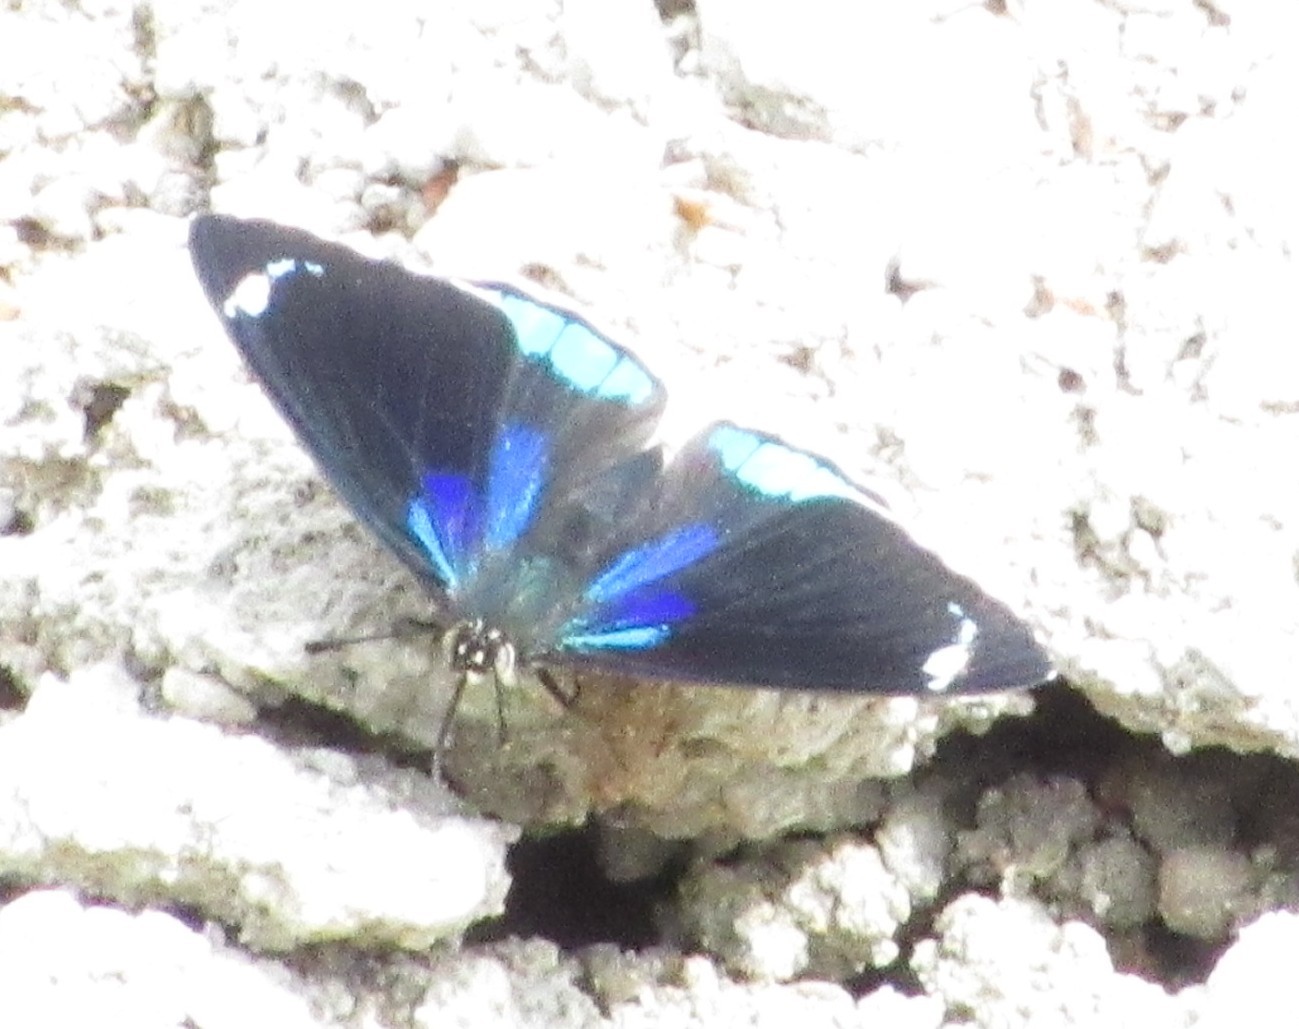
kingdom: Animalia
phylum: Arthropoda
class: Insecta
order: Lepidoptera
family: Nymphalidae
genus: Diaethria
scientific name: Diaethria candrena
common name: Number eighty
